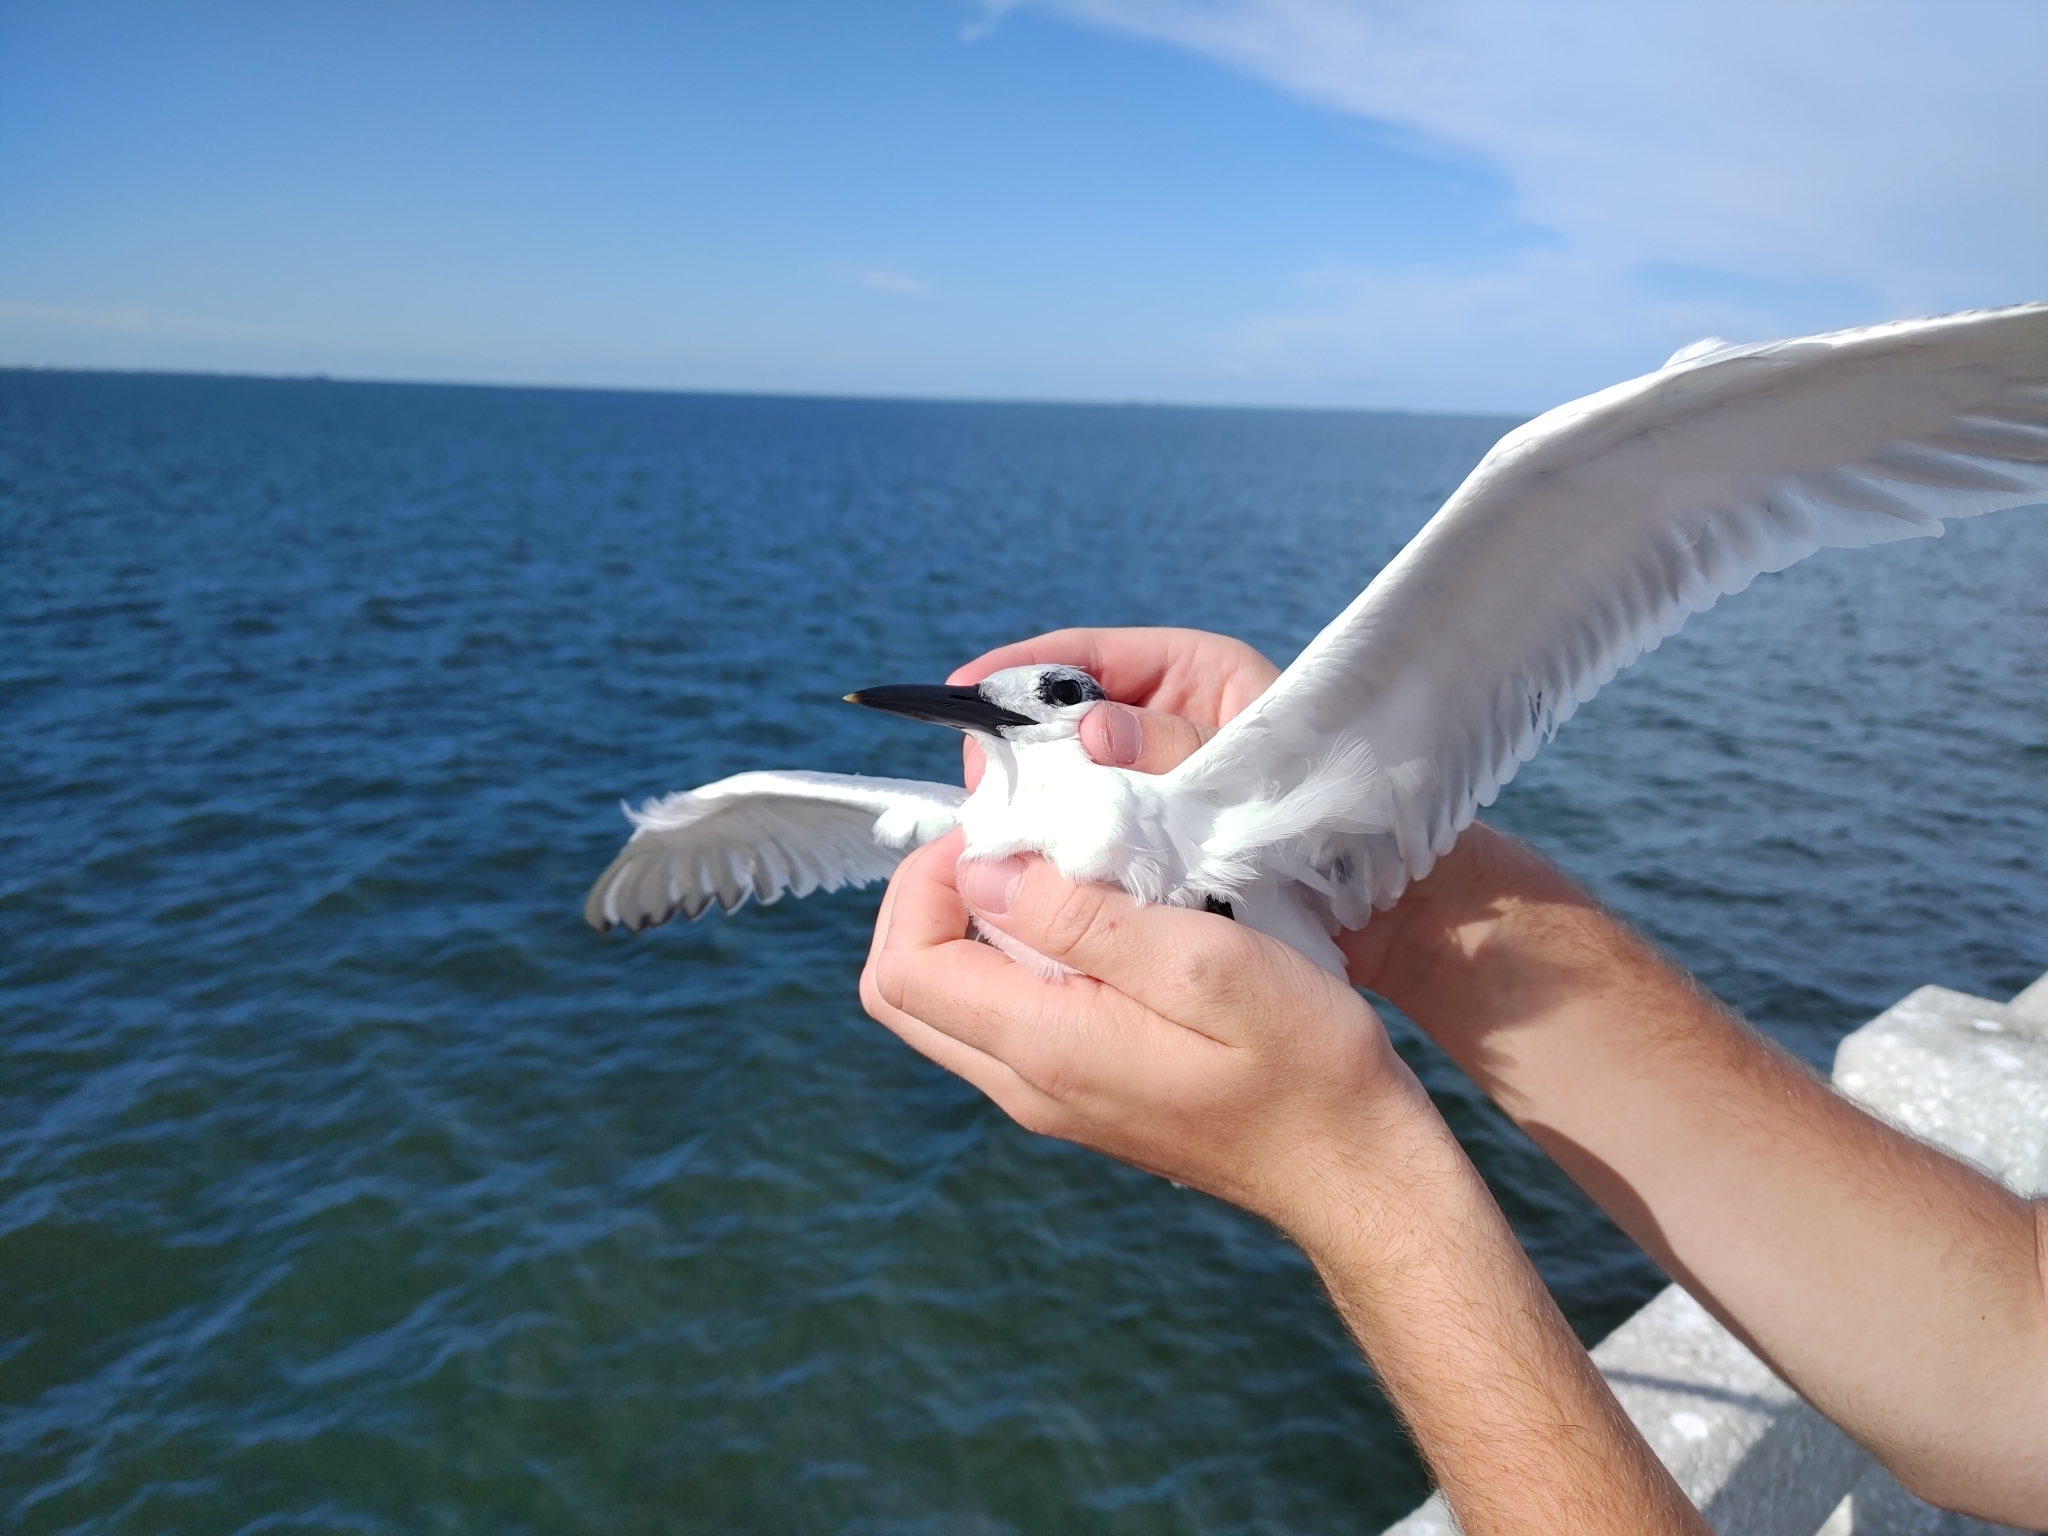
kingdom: Animalia
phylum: Chordata
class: Aves
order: Charadriiformes
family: Laridae
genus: Thalasseus
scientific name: Thalasseus acuflavidus
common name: Cabot's tern
